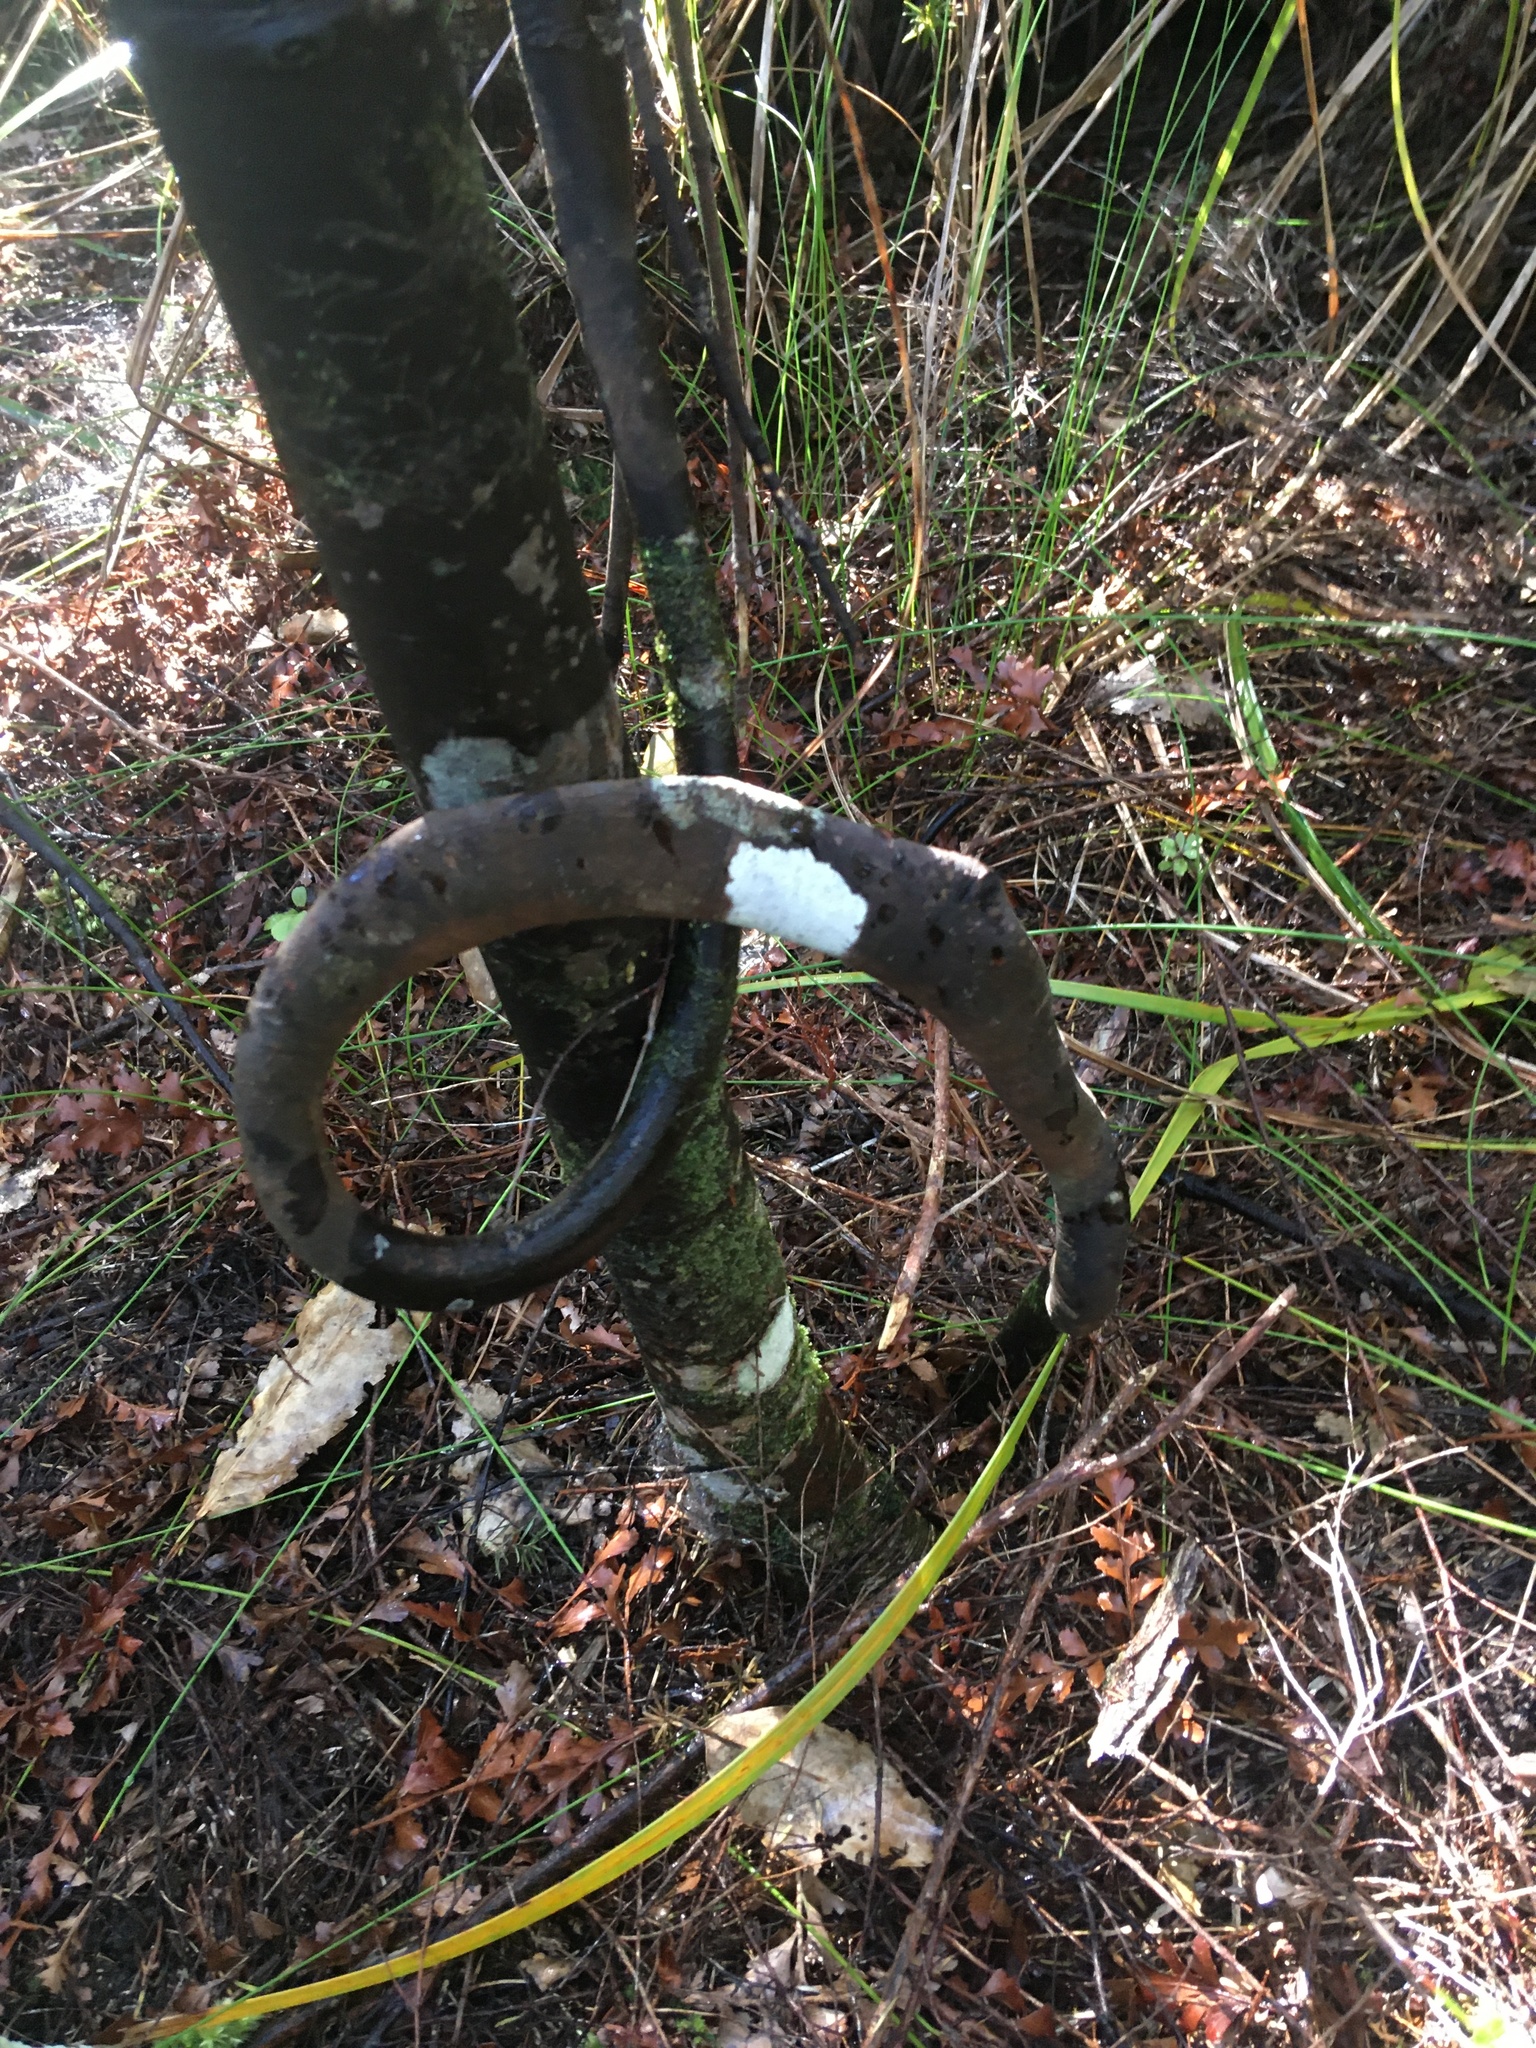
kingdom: Plantae
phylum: Tracheophyta
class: Pinopsida
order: Pinales
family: Phyllocladaceae
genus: Phyllocladus
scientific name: Phyllocladus trichomanoides
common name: Celery pine
